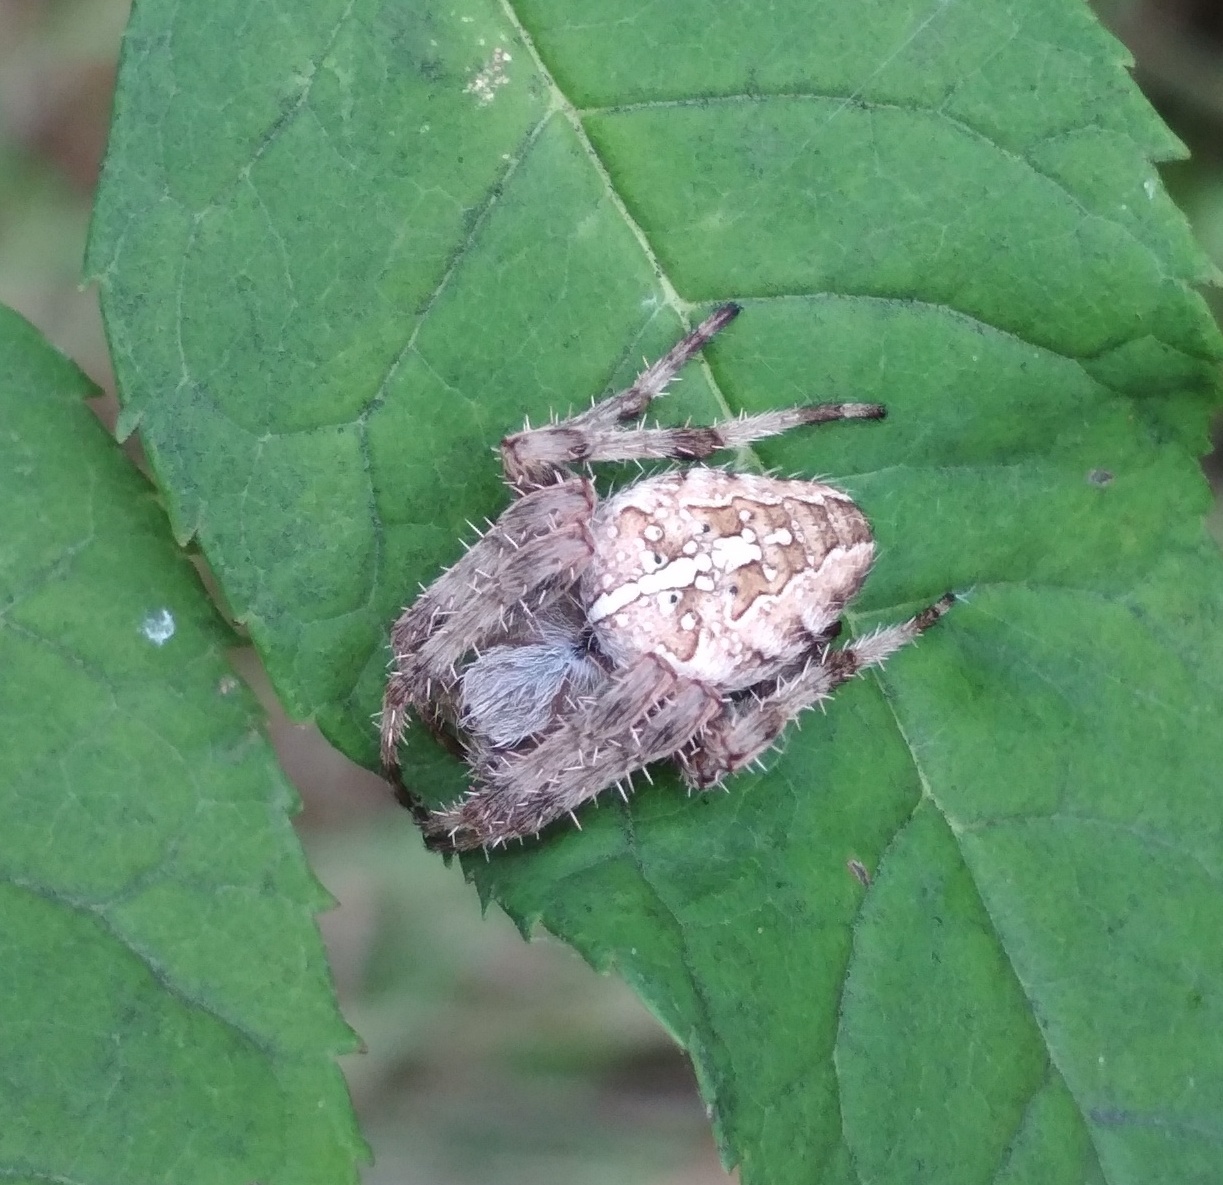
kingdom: Animalia
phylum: Arthropoda
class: Arachnida
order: Araneae
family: Araneidae
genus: Araneus
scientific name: Araneus diadematus
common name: Cross orbweaver
